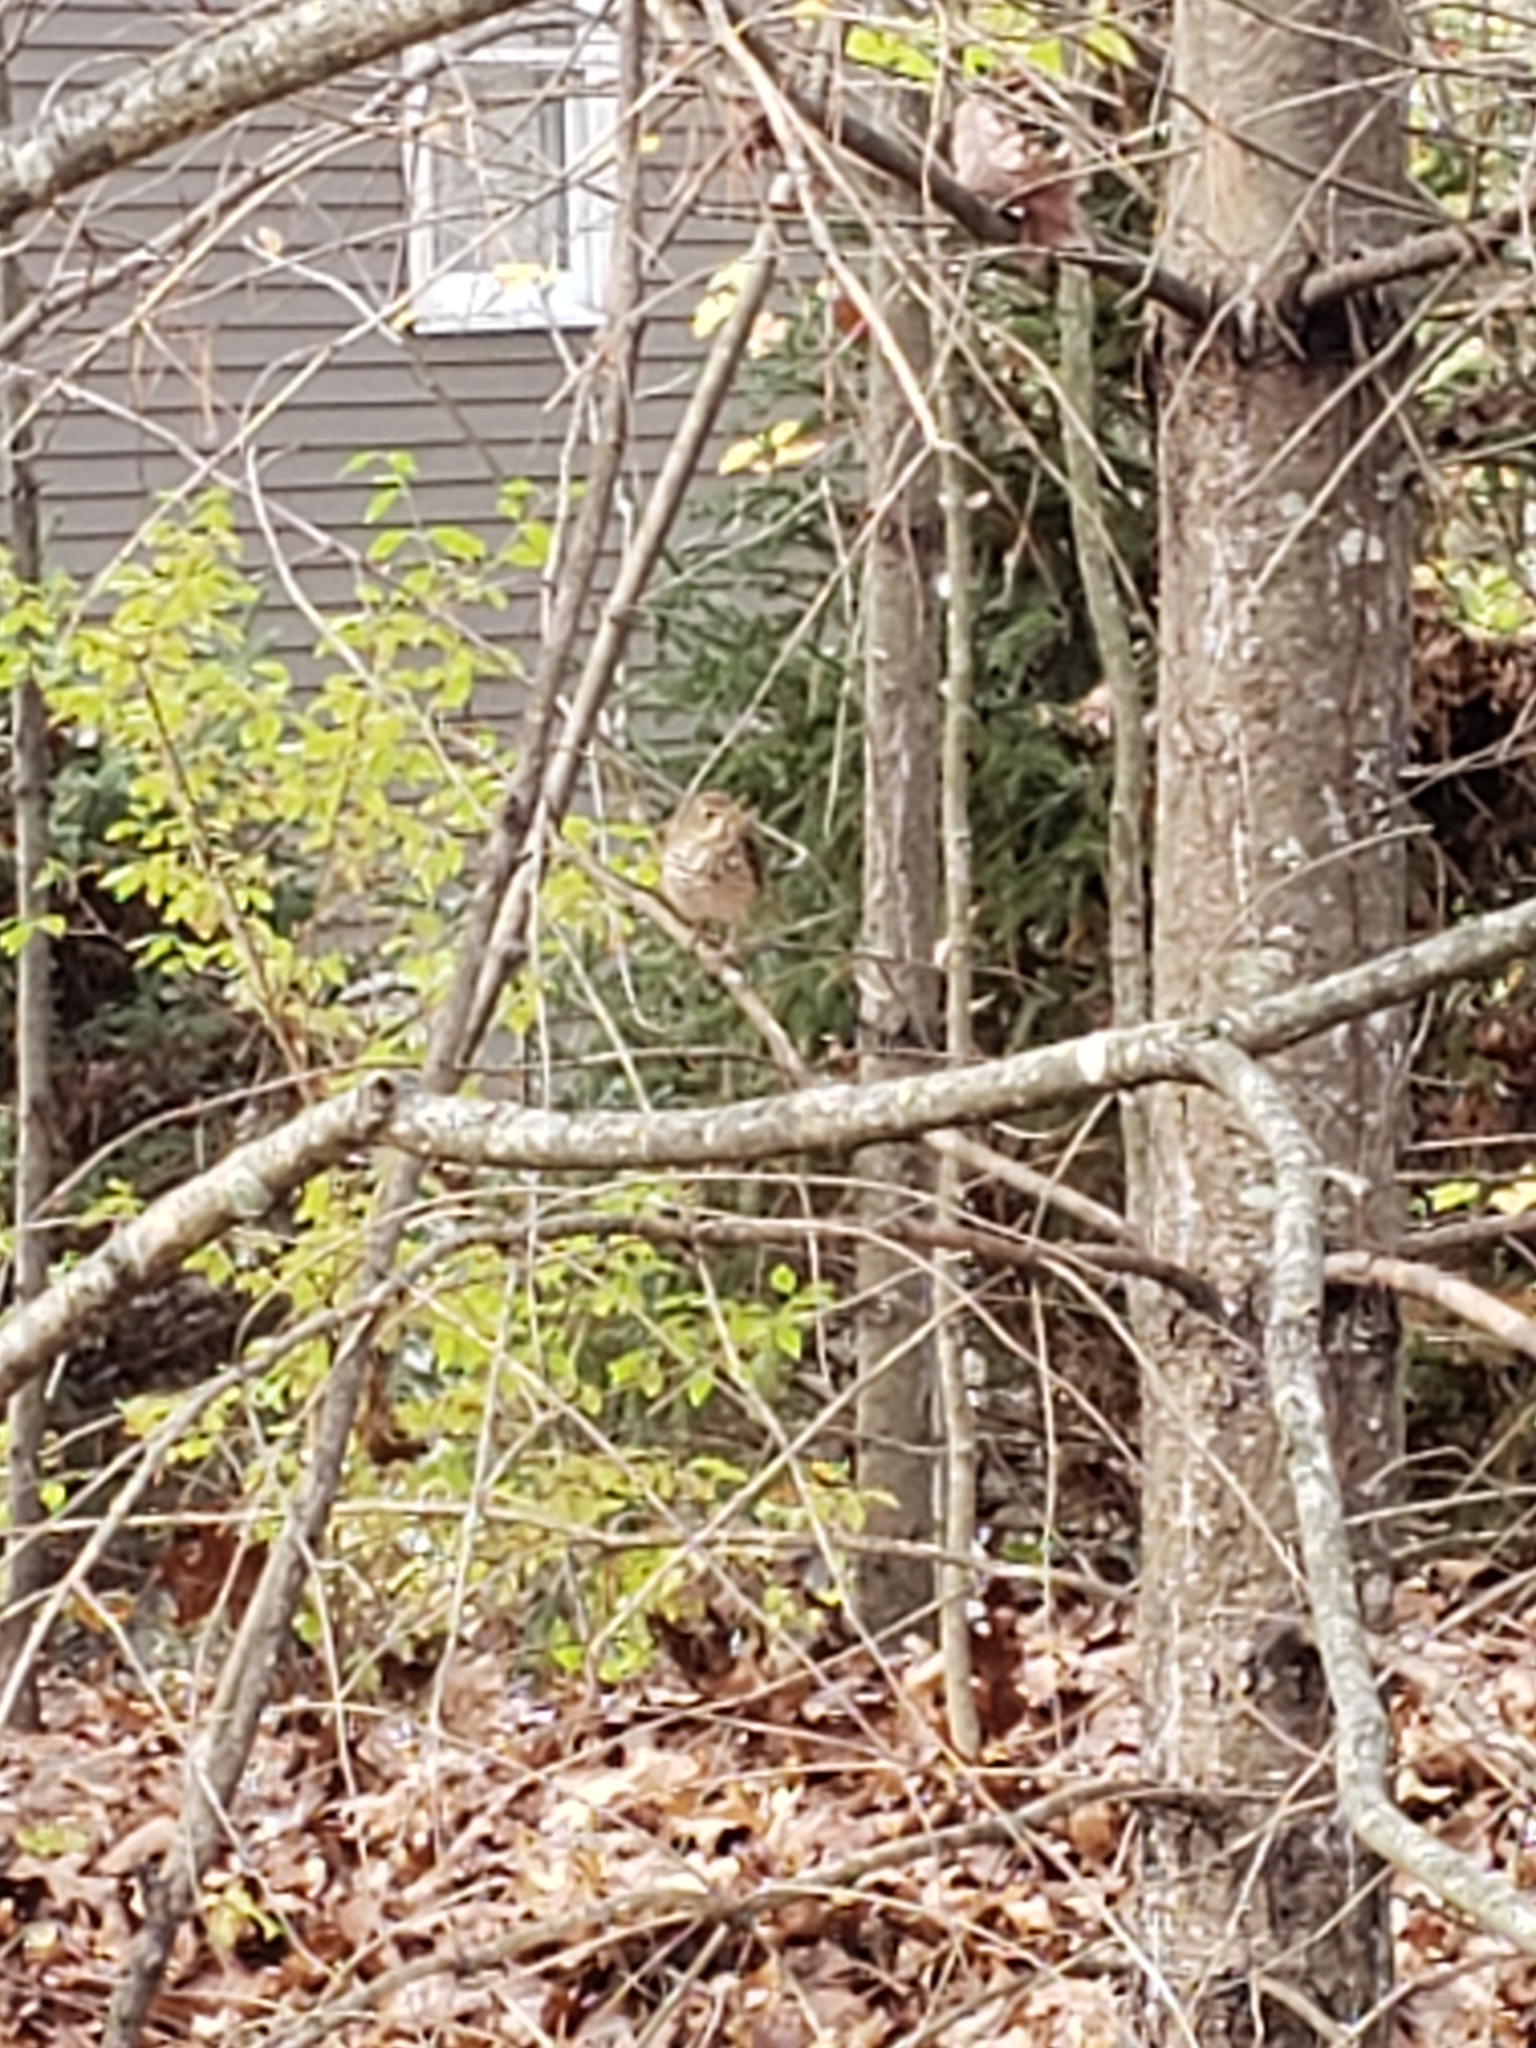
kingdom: Animalia
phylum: Chordata
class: Aves
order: Passeriformes
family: Turdidae
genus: Catharus
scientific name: Catharus guttatus
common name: Hermit thrush
